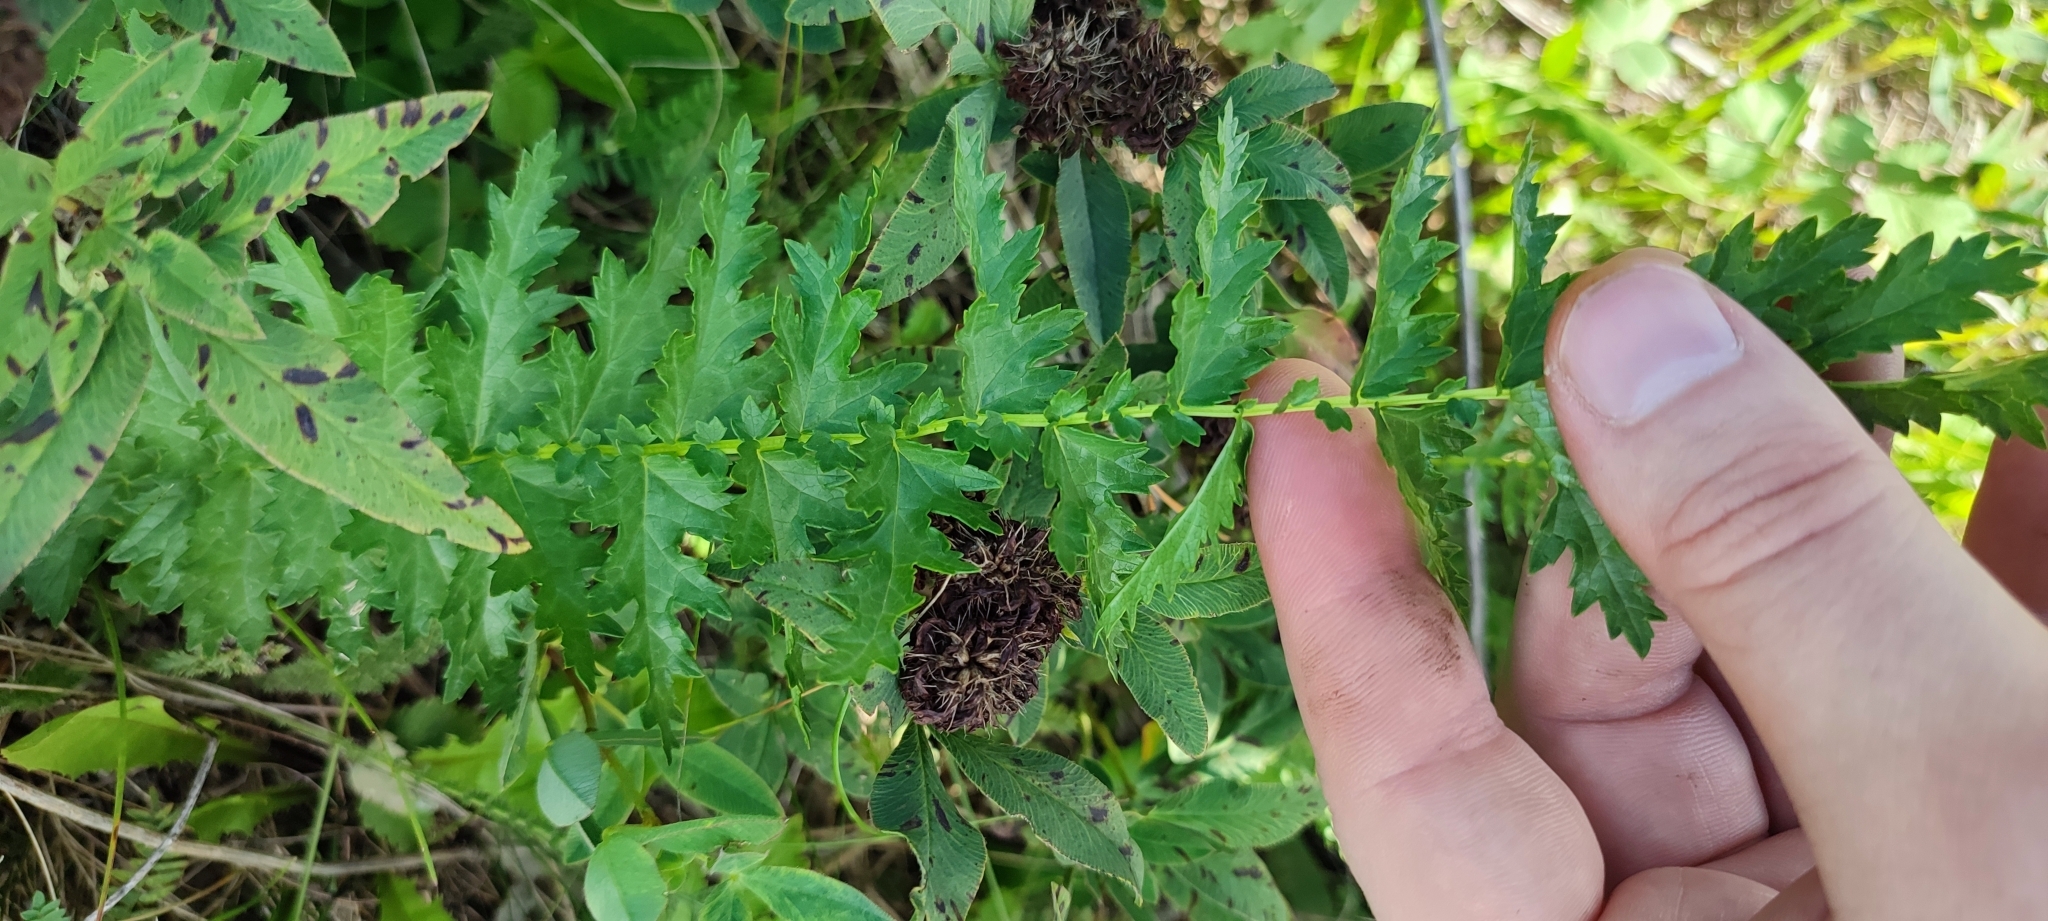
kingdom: Plantae
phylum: Tracheophyta
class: Magnoliopsida
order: Rosales
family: Rosaceae
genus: Filipendula
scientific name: Filipendula vulgaris
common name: Dropwort
